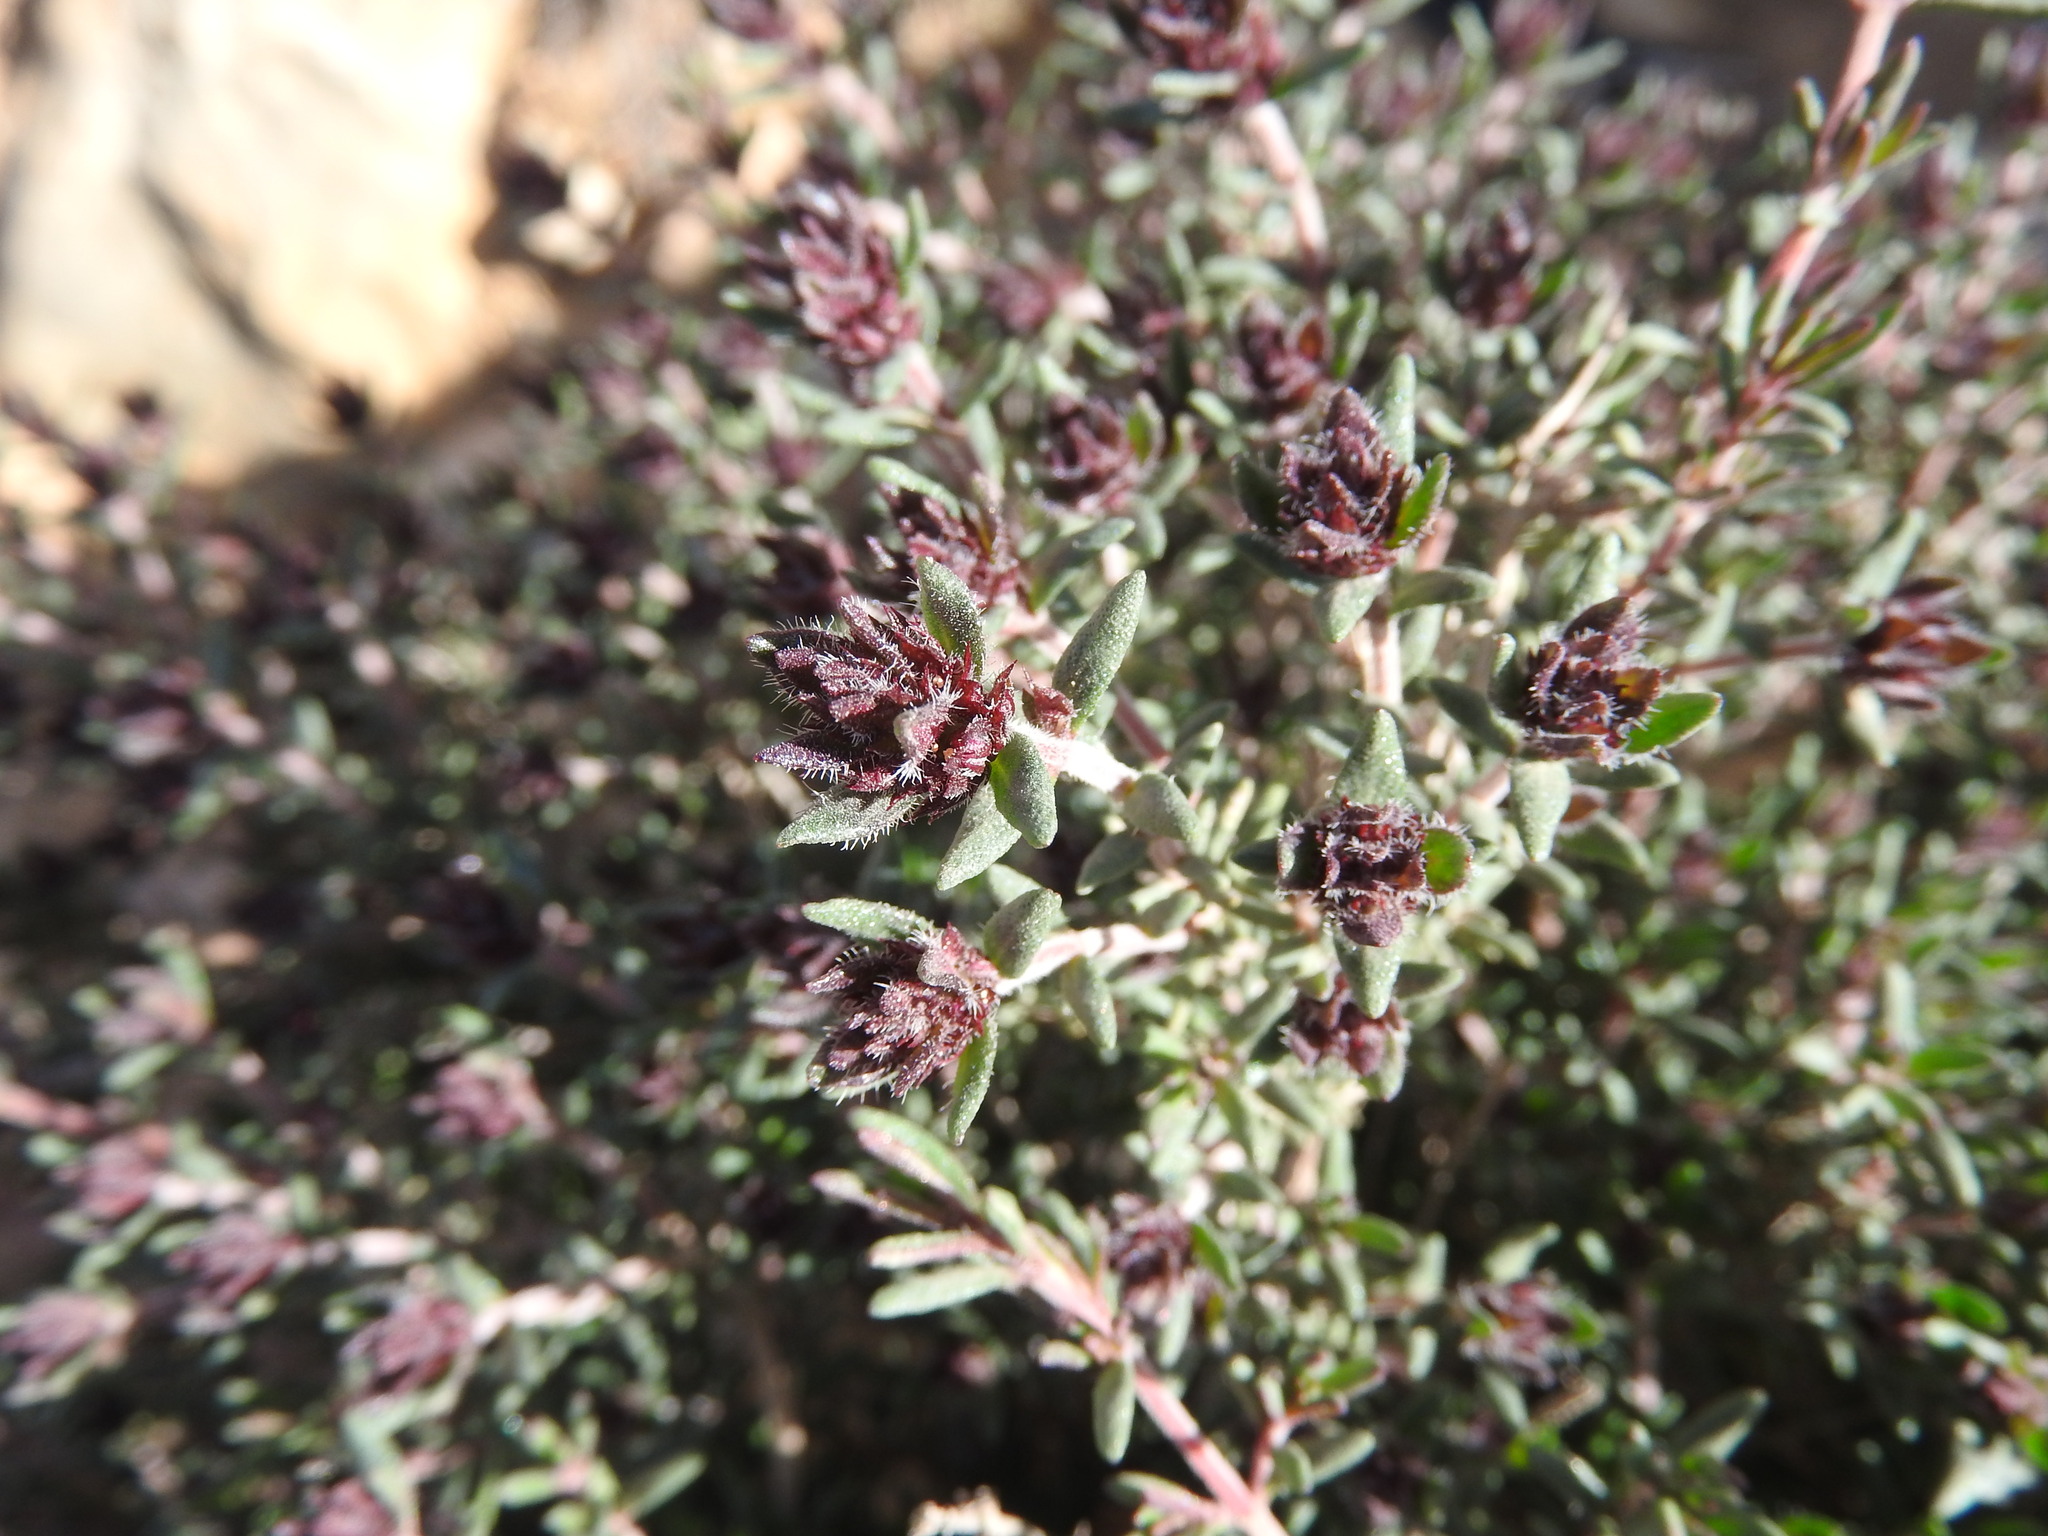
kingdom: Plantae
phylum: Tracheophyta
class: Magnoliopsida
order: Lamiales
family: Lamiaceae
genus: Thymus
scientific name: Thymus algeriensis
